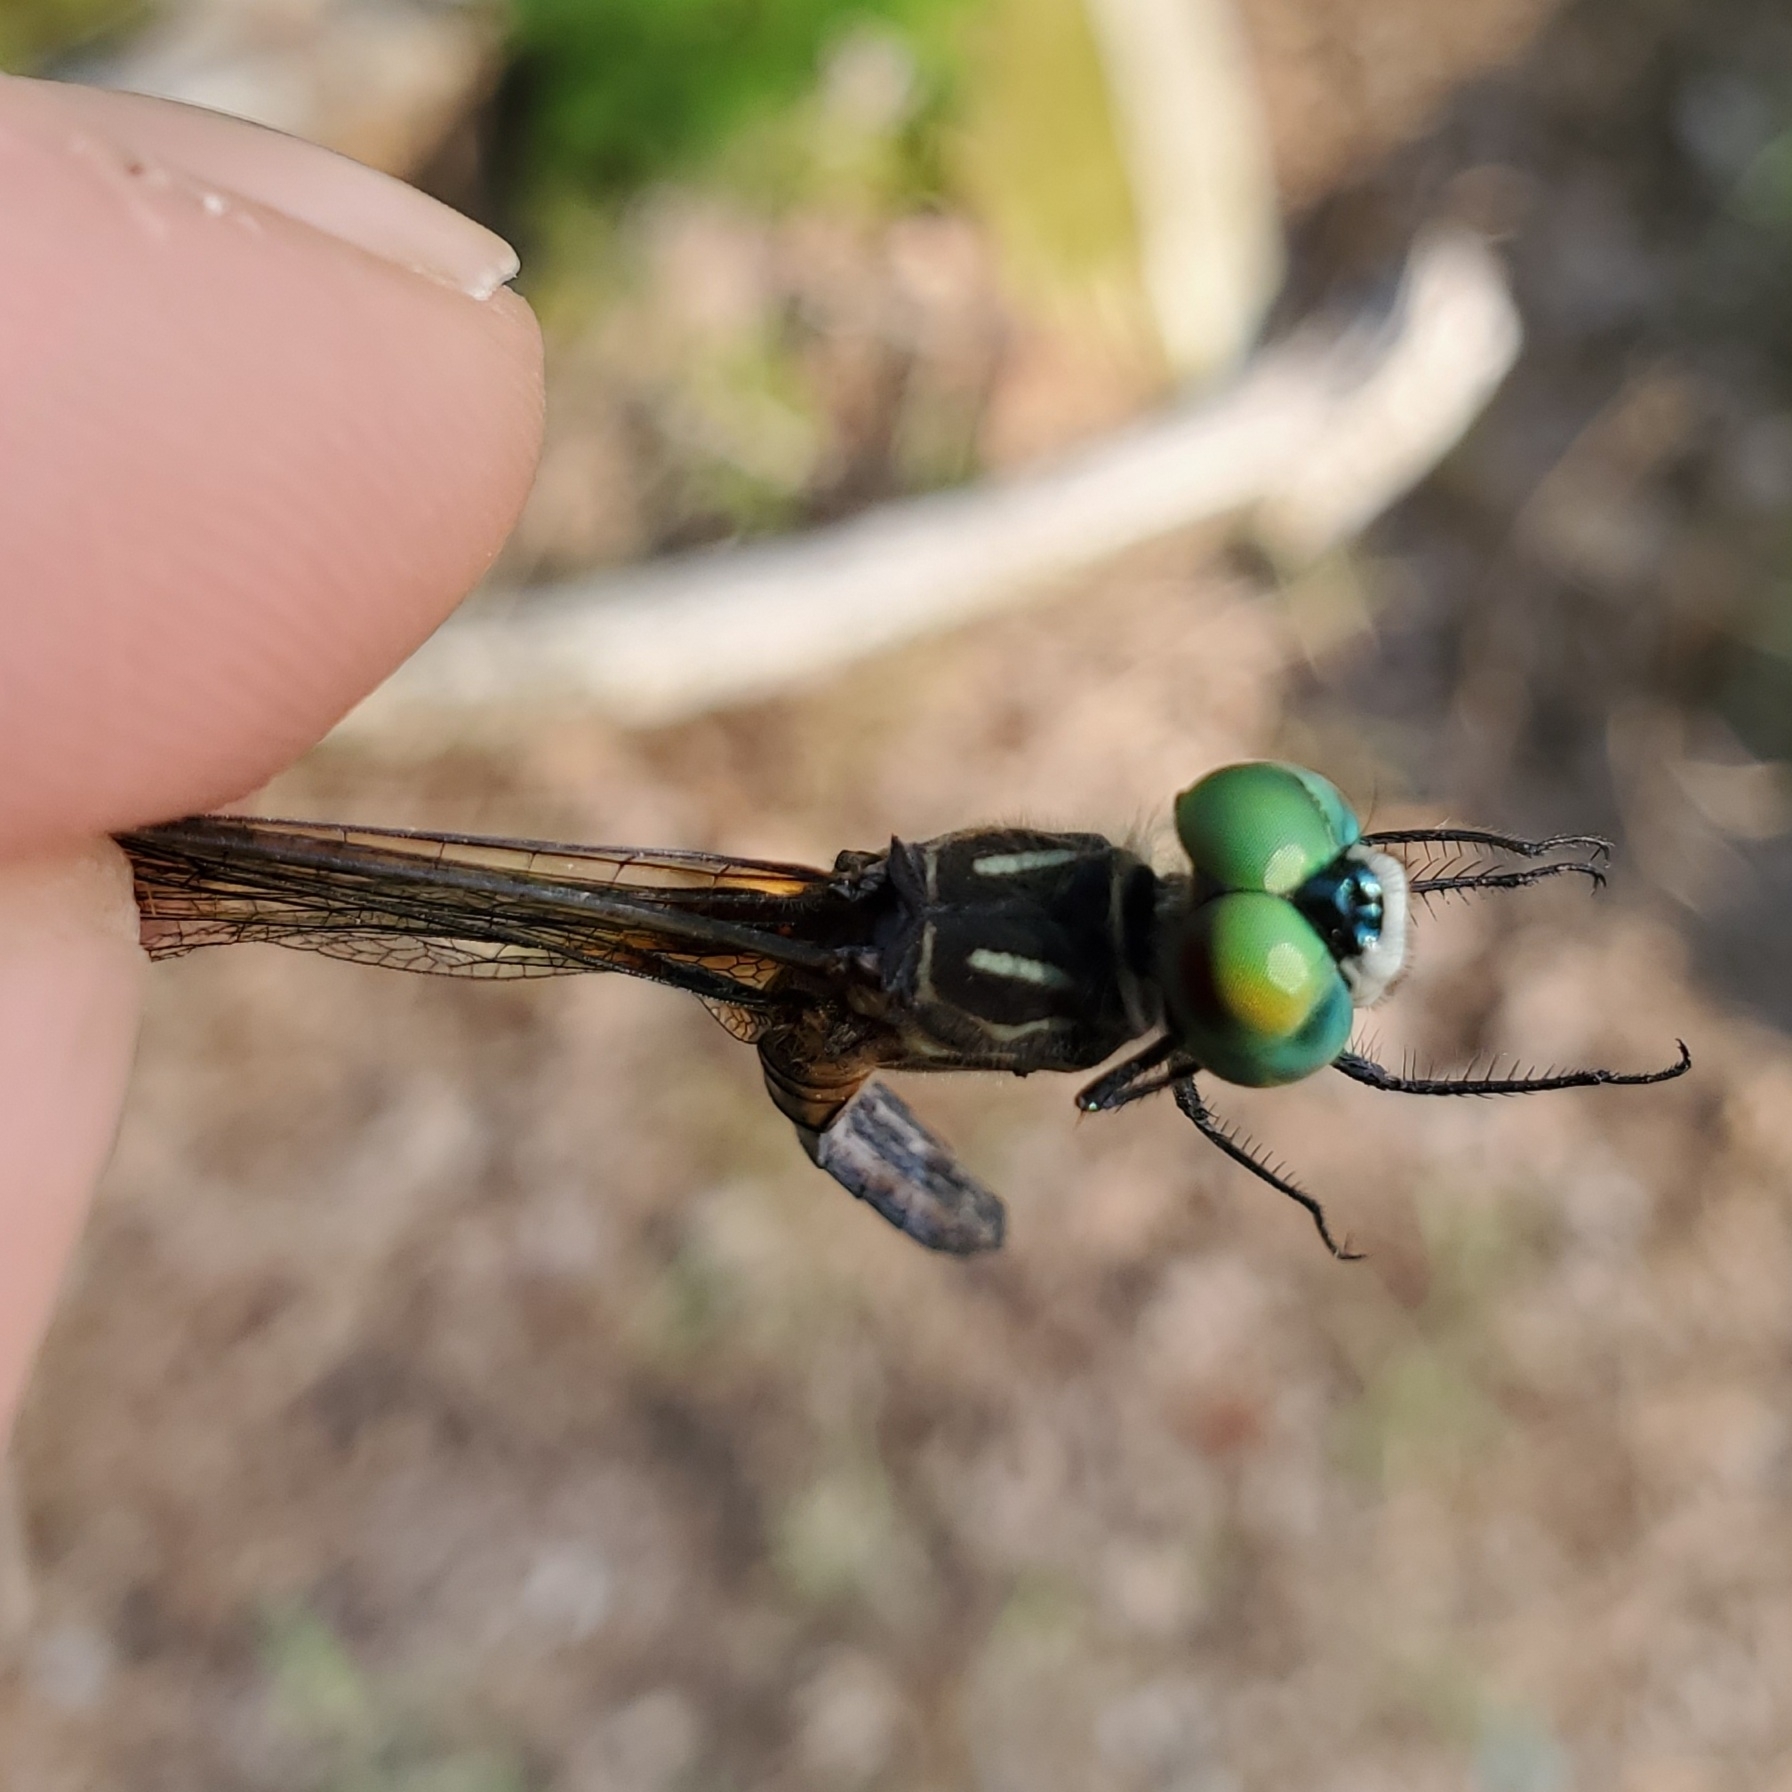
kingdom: Animalia
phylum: Arthropoda
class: Insecta
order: Odonata
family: Libellulidae
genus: Pachydiplax
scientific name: Pachydiplax longipennis
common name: Blue dasher
